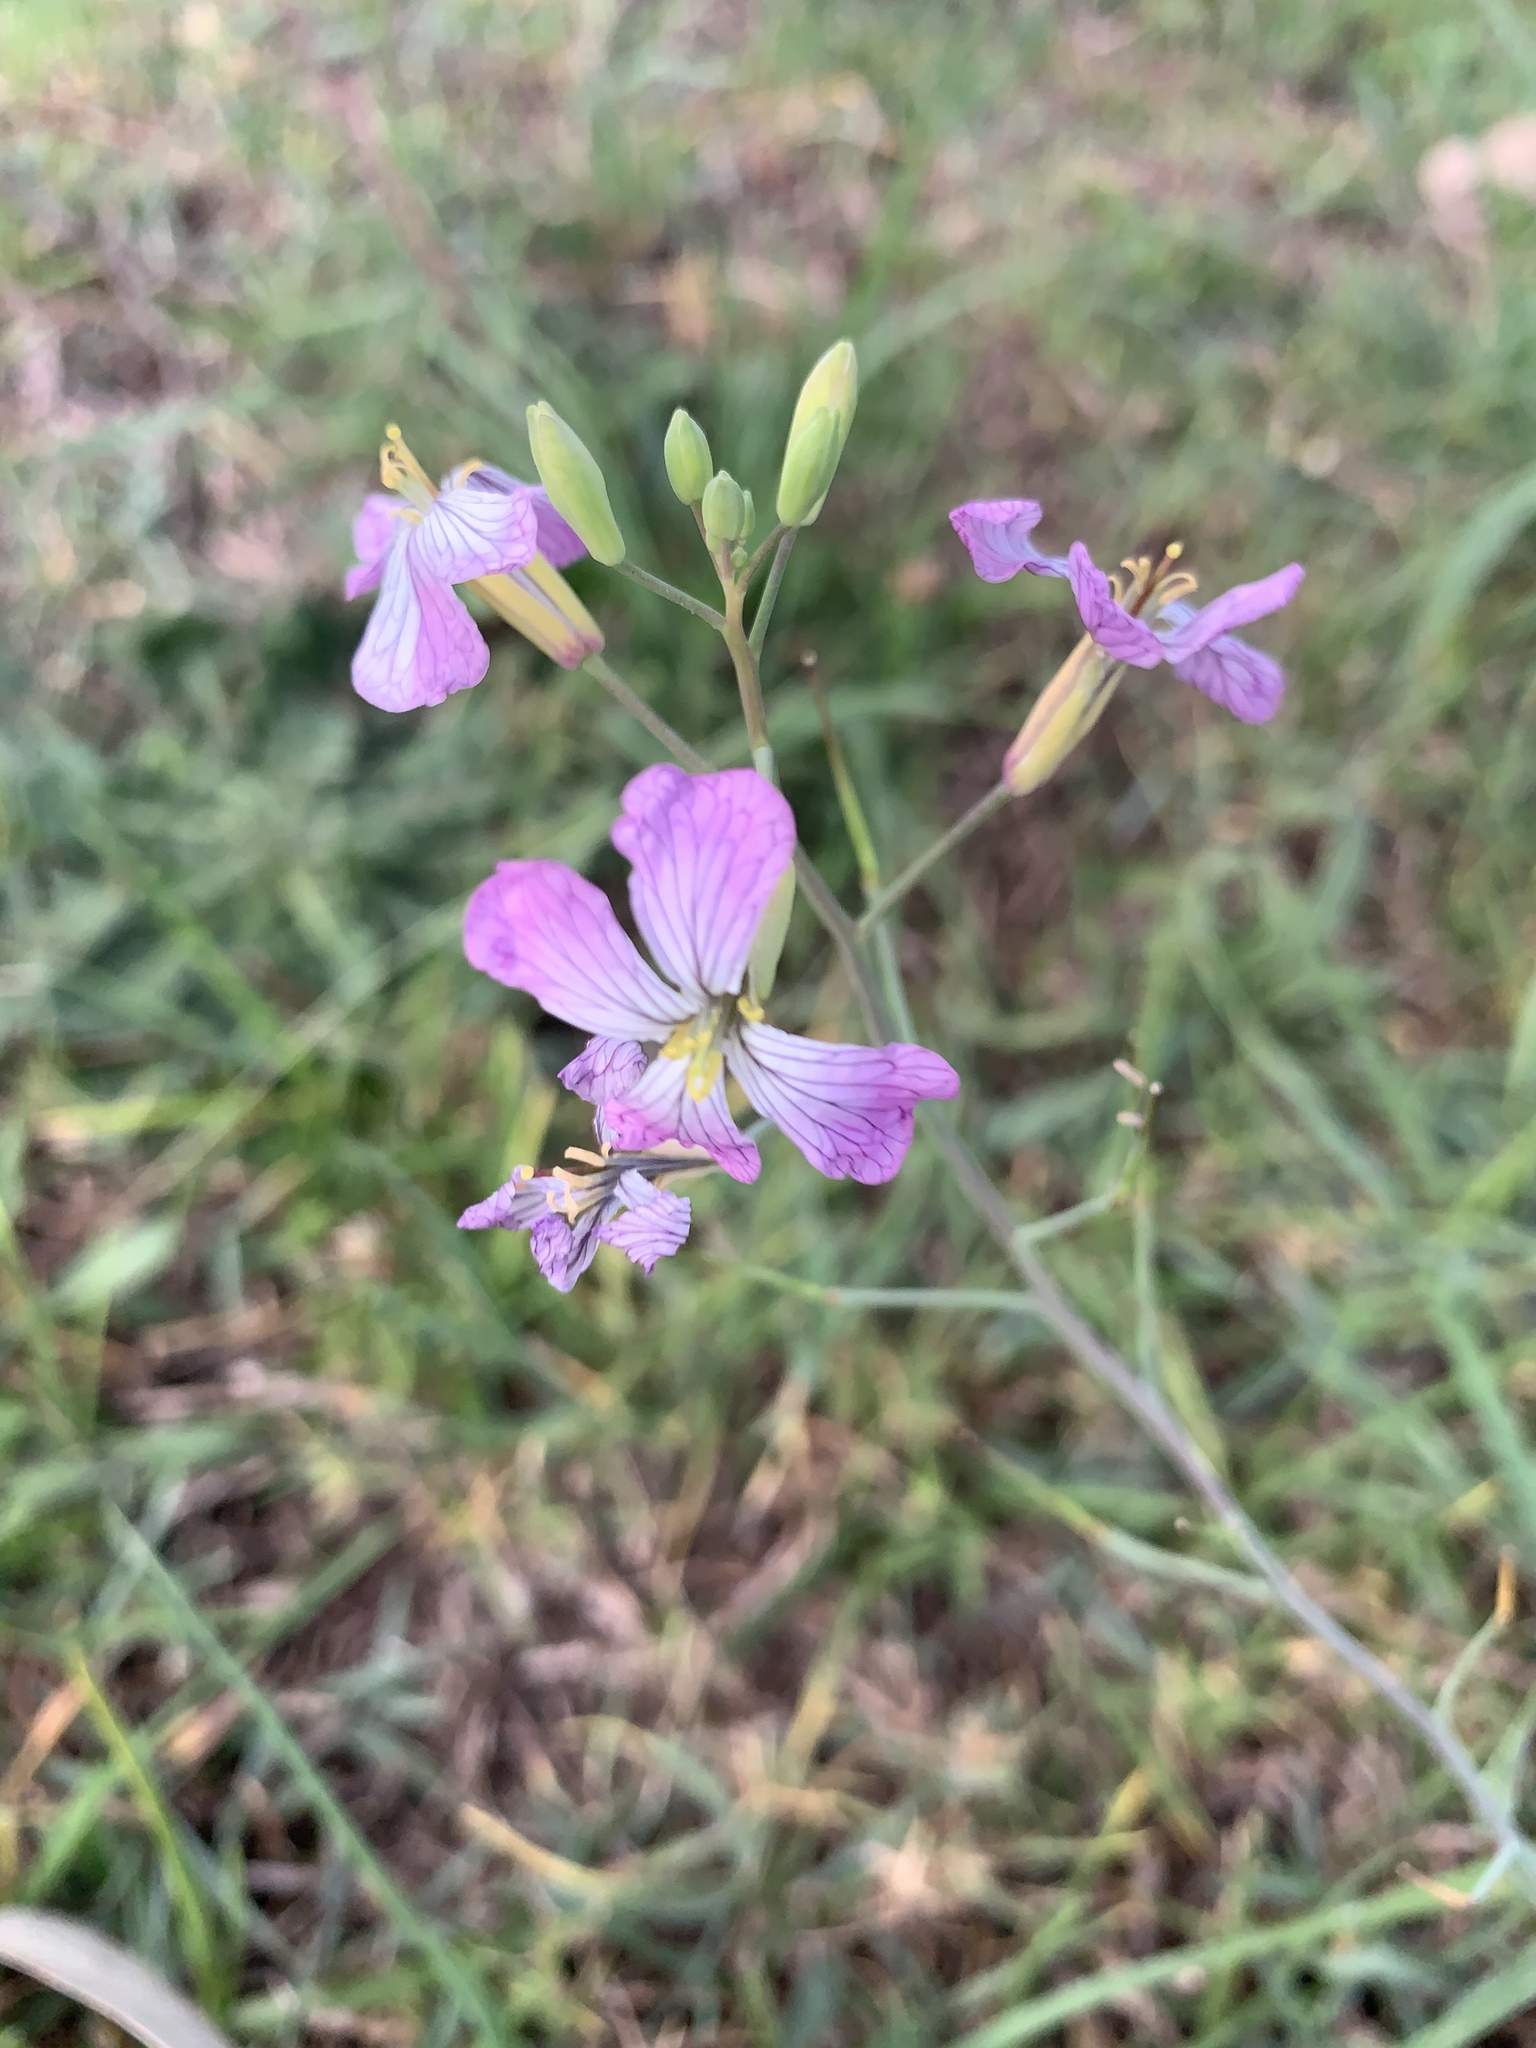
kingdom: Plantae
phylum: Tracheophyta
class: Magnoliopsida
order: Brassicales
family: Brassicaceae
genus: Raphanus
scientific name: Raphanus sativus
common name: Cultivated radish
